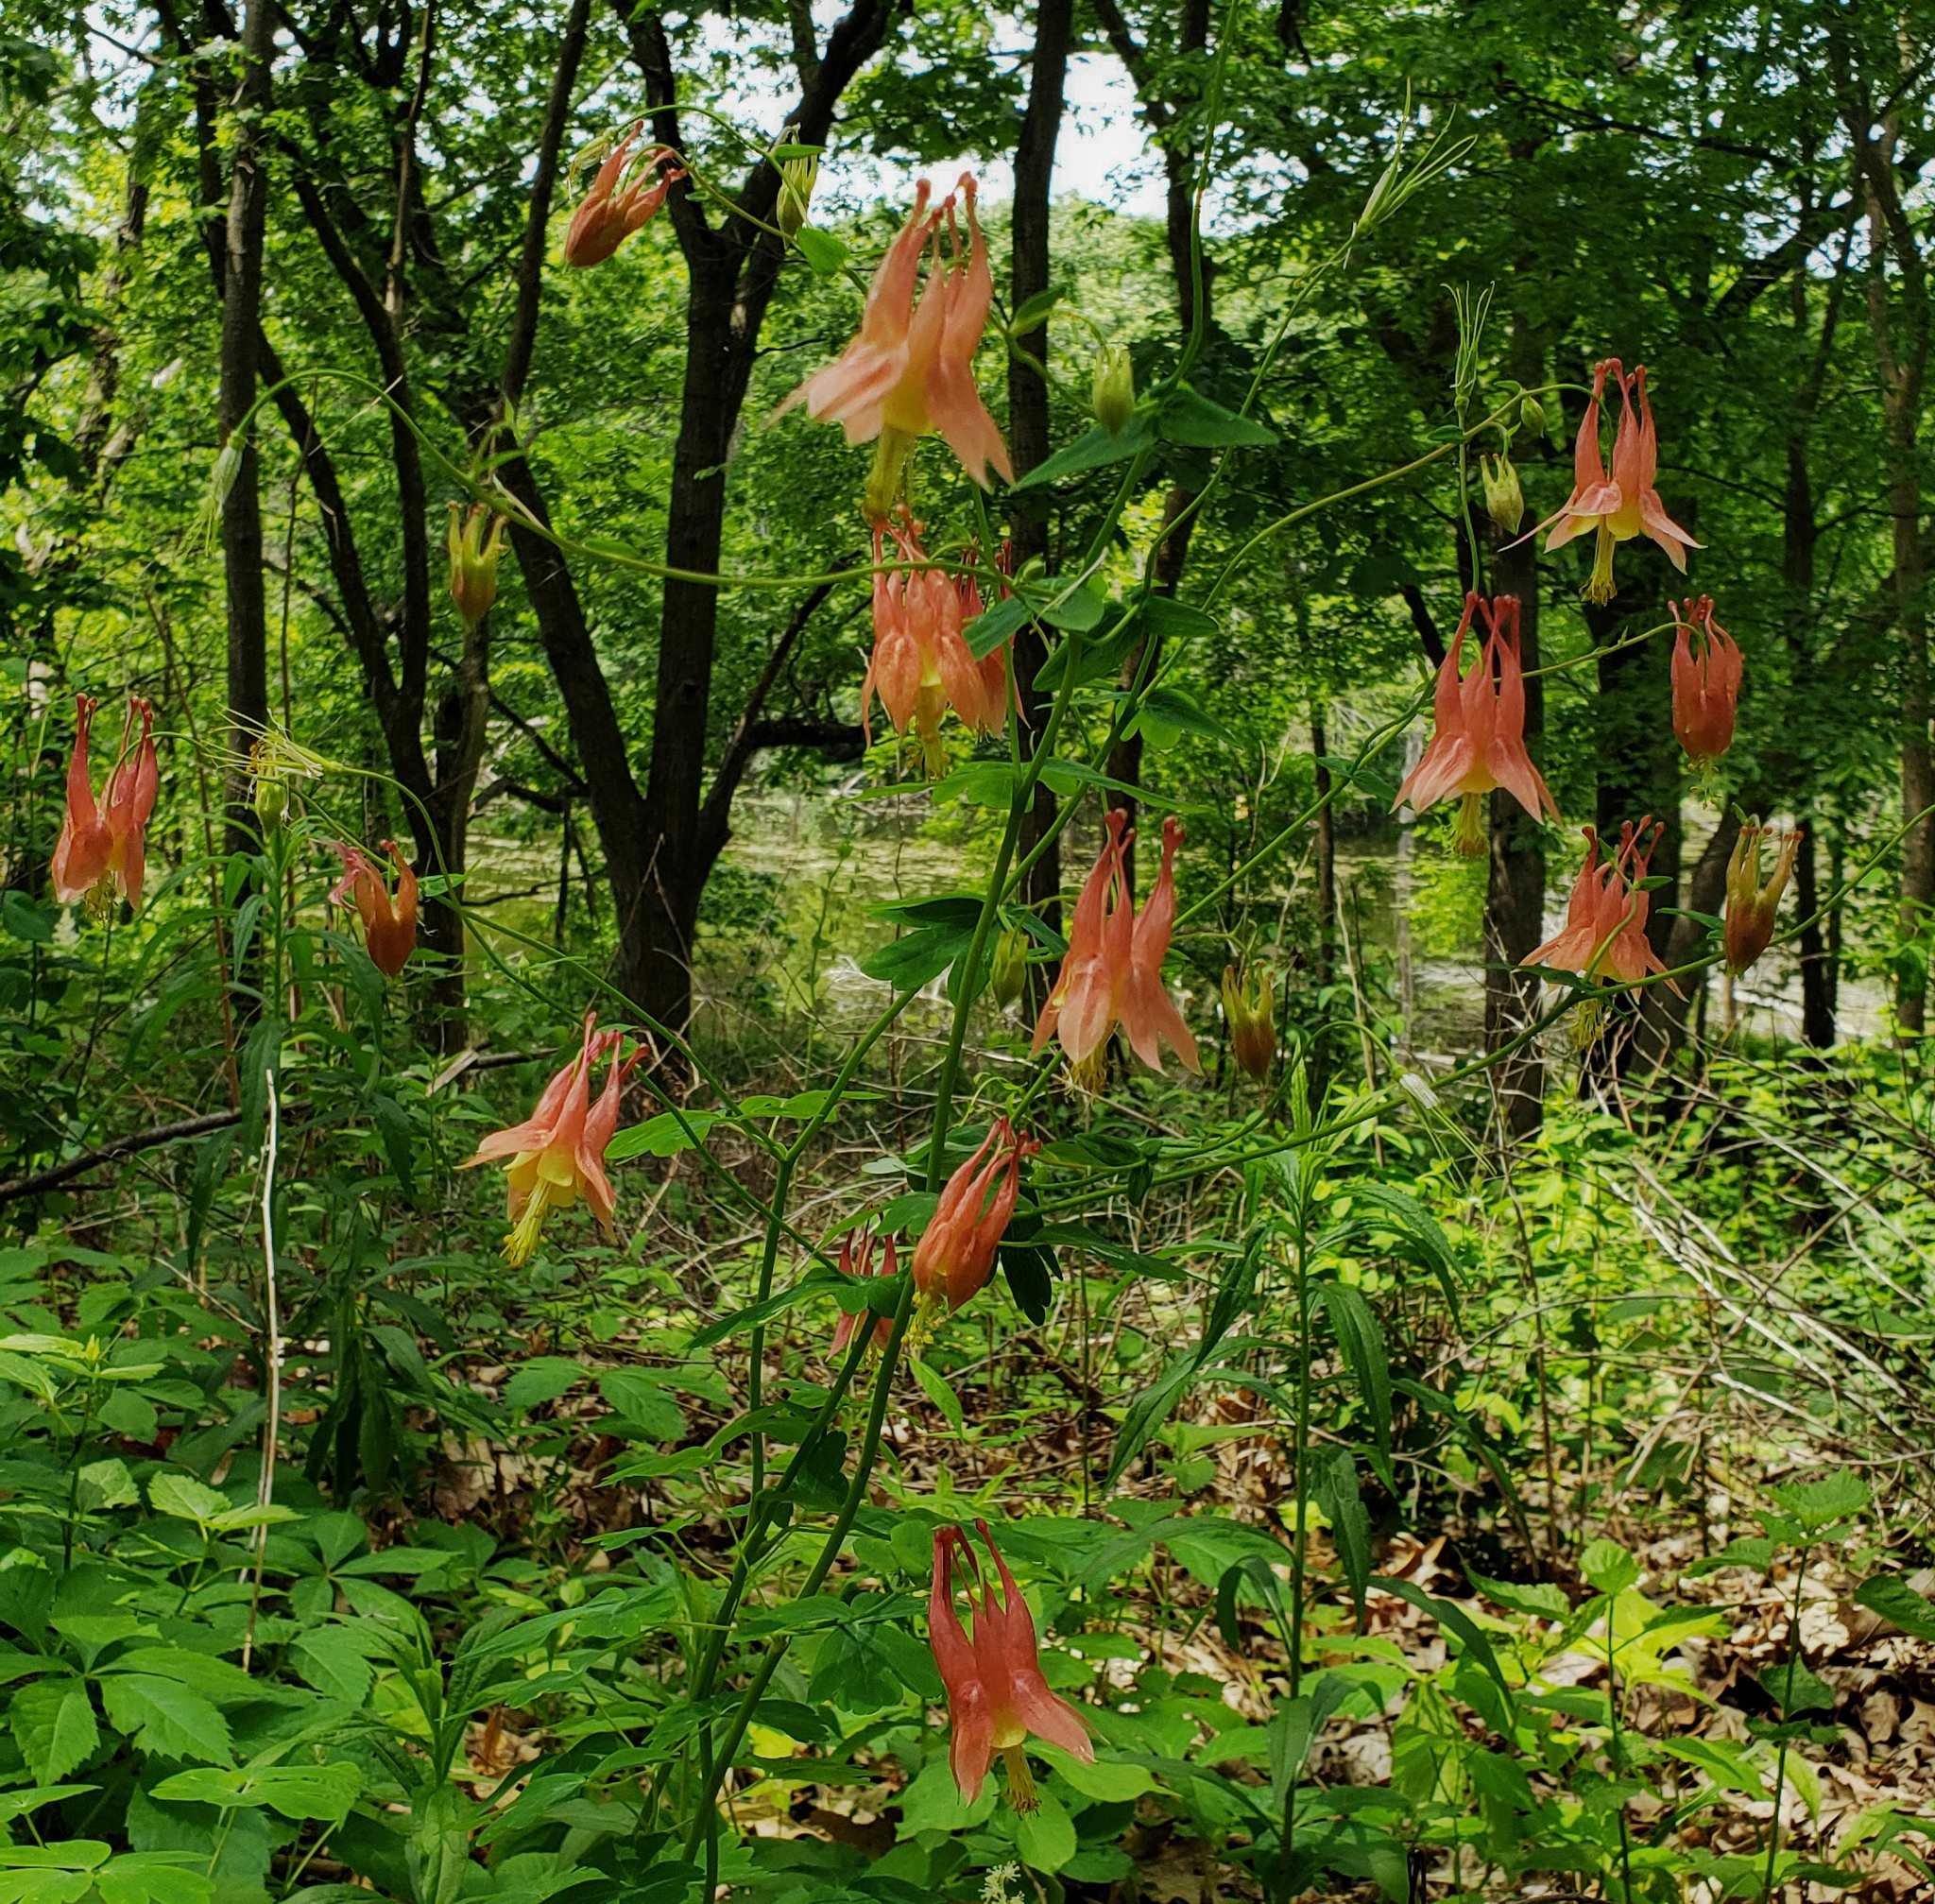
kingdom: Plantae
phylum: Tracheophyta
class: Magnoliopsida
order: Ranunculales
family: Ranunculaceae
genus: Aquilegia
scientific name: Aquilegia canadensis
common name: American columbine
